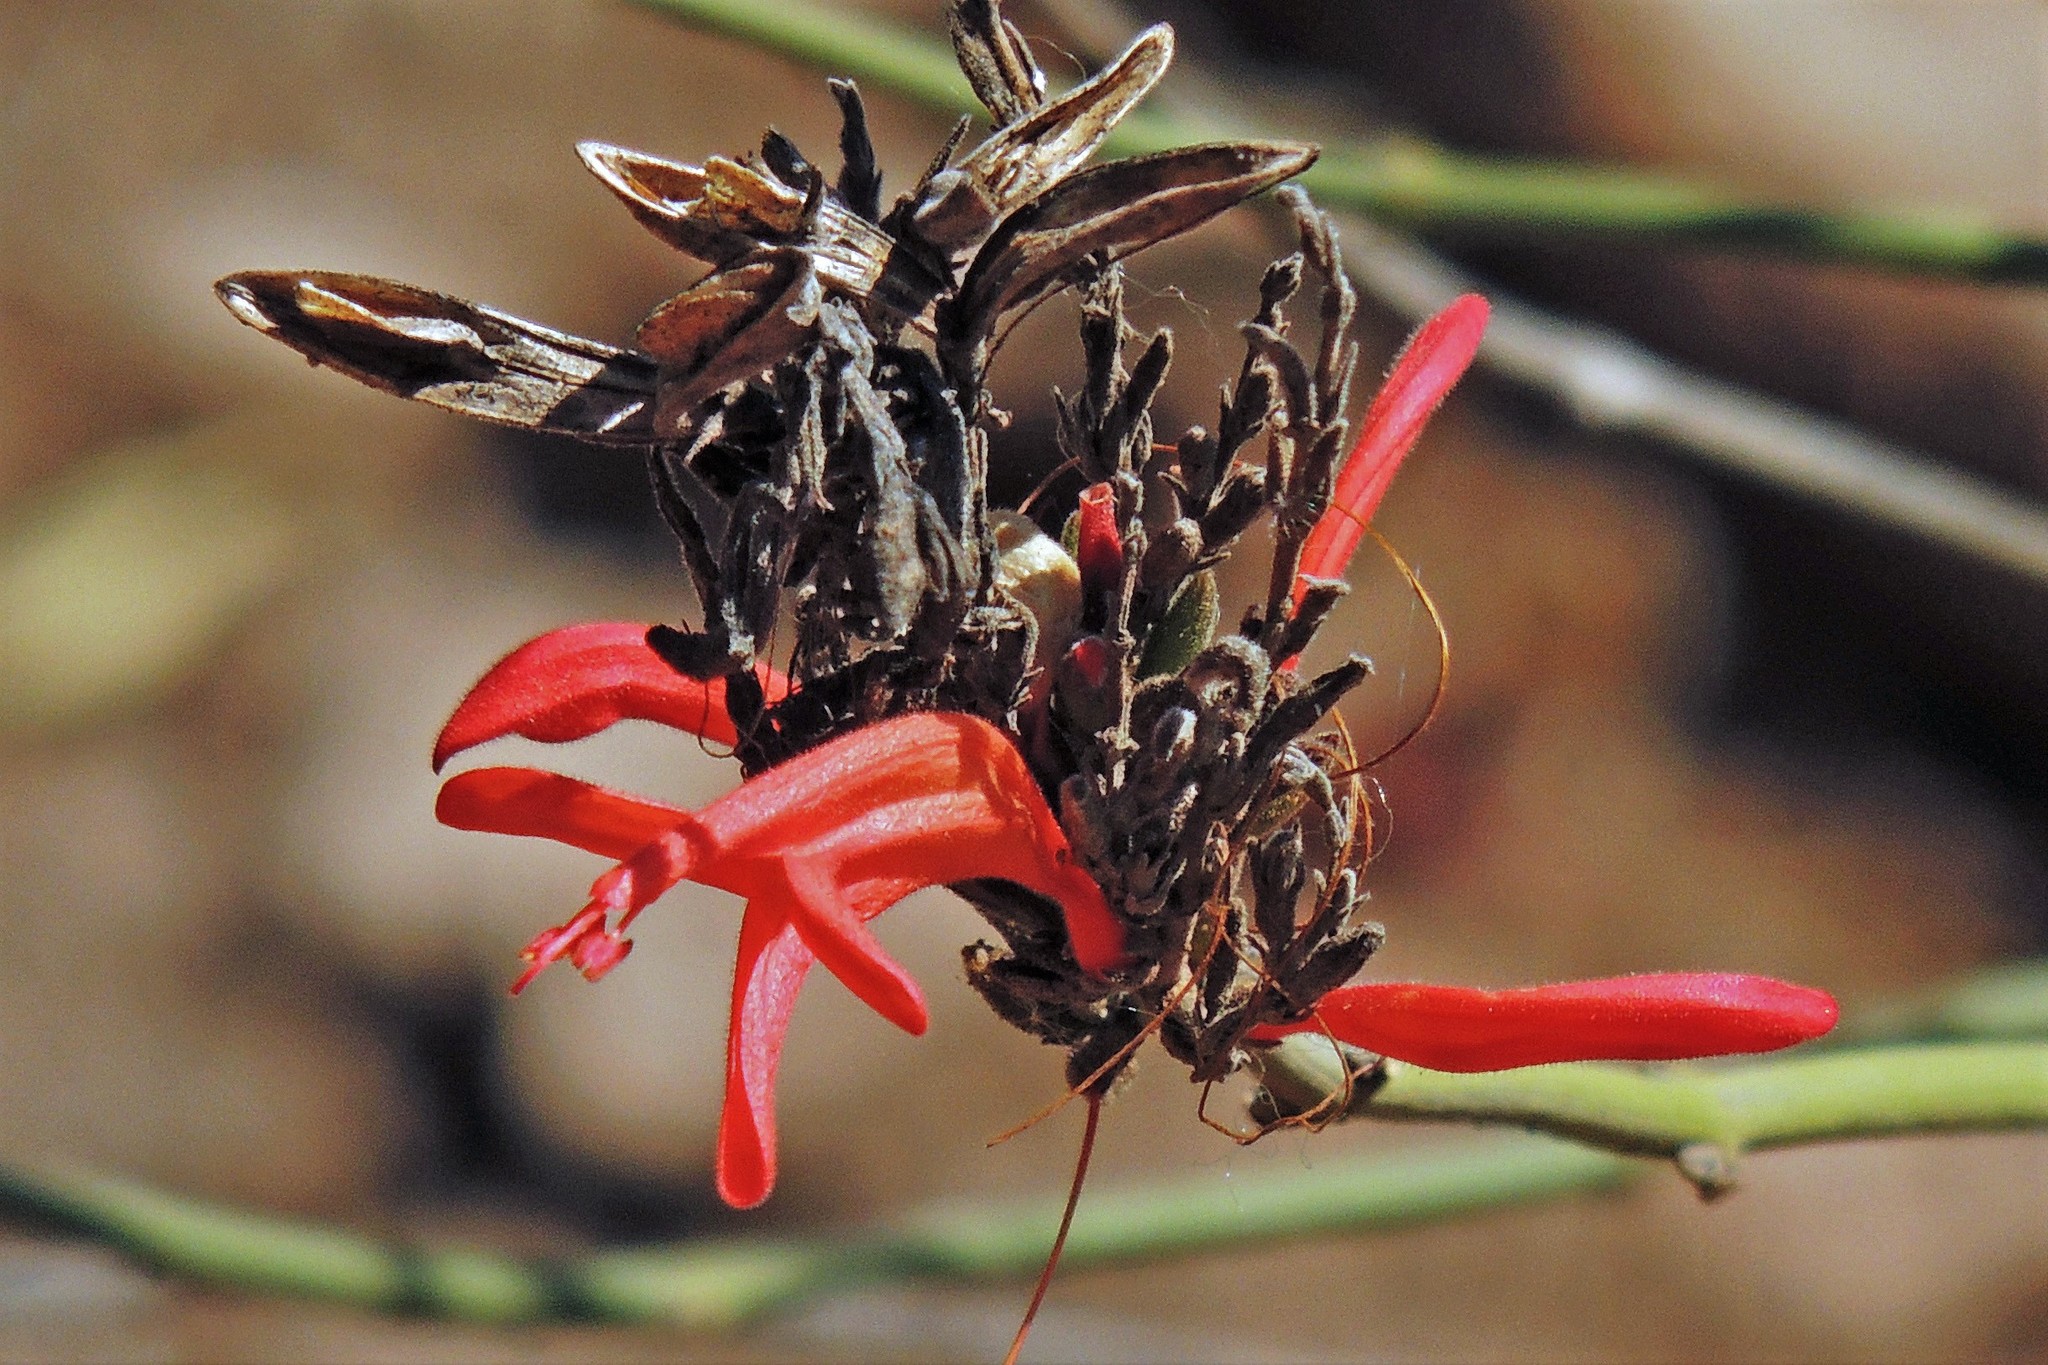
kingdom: Plantae
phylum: Tracheophyta
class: Magnoliopsida
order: Lamiales
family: Acanthaceae
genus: Thyrsacanthus
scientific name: Thyrsacanthus boliviensis
